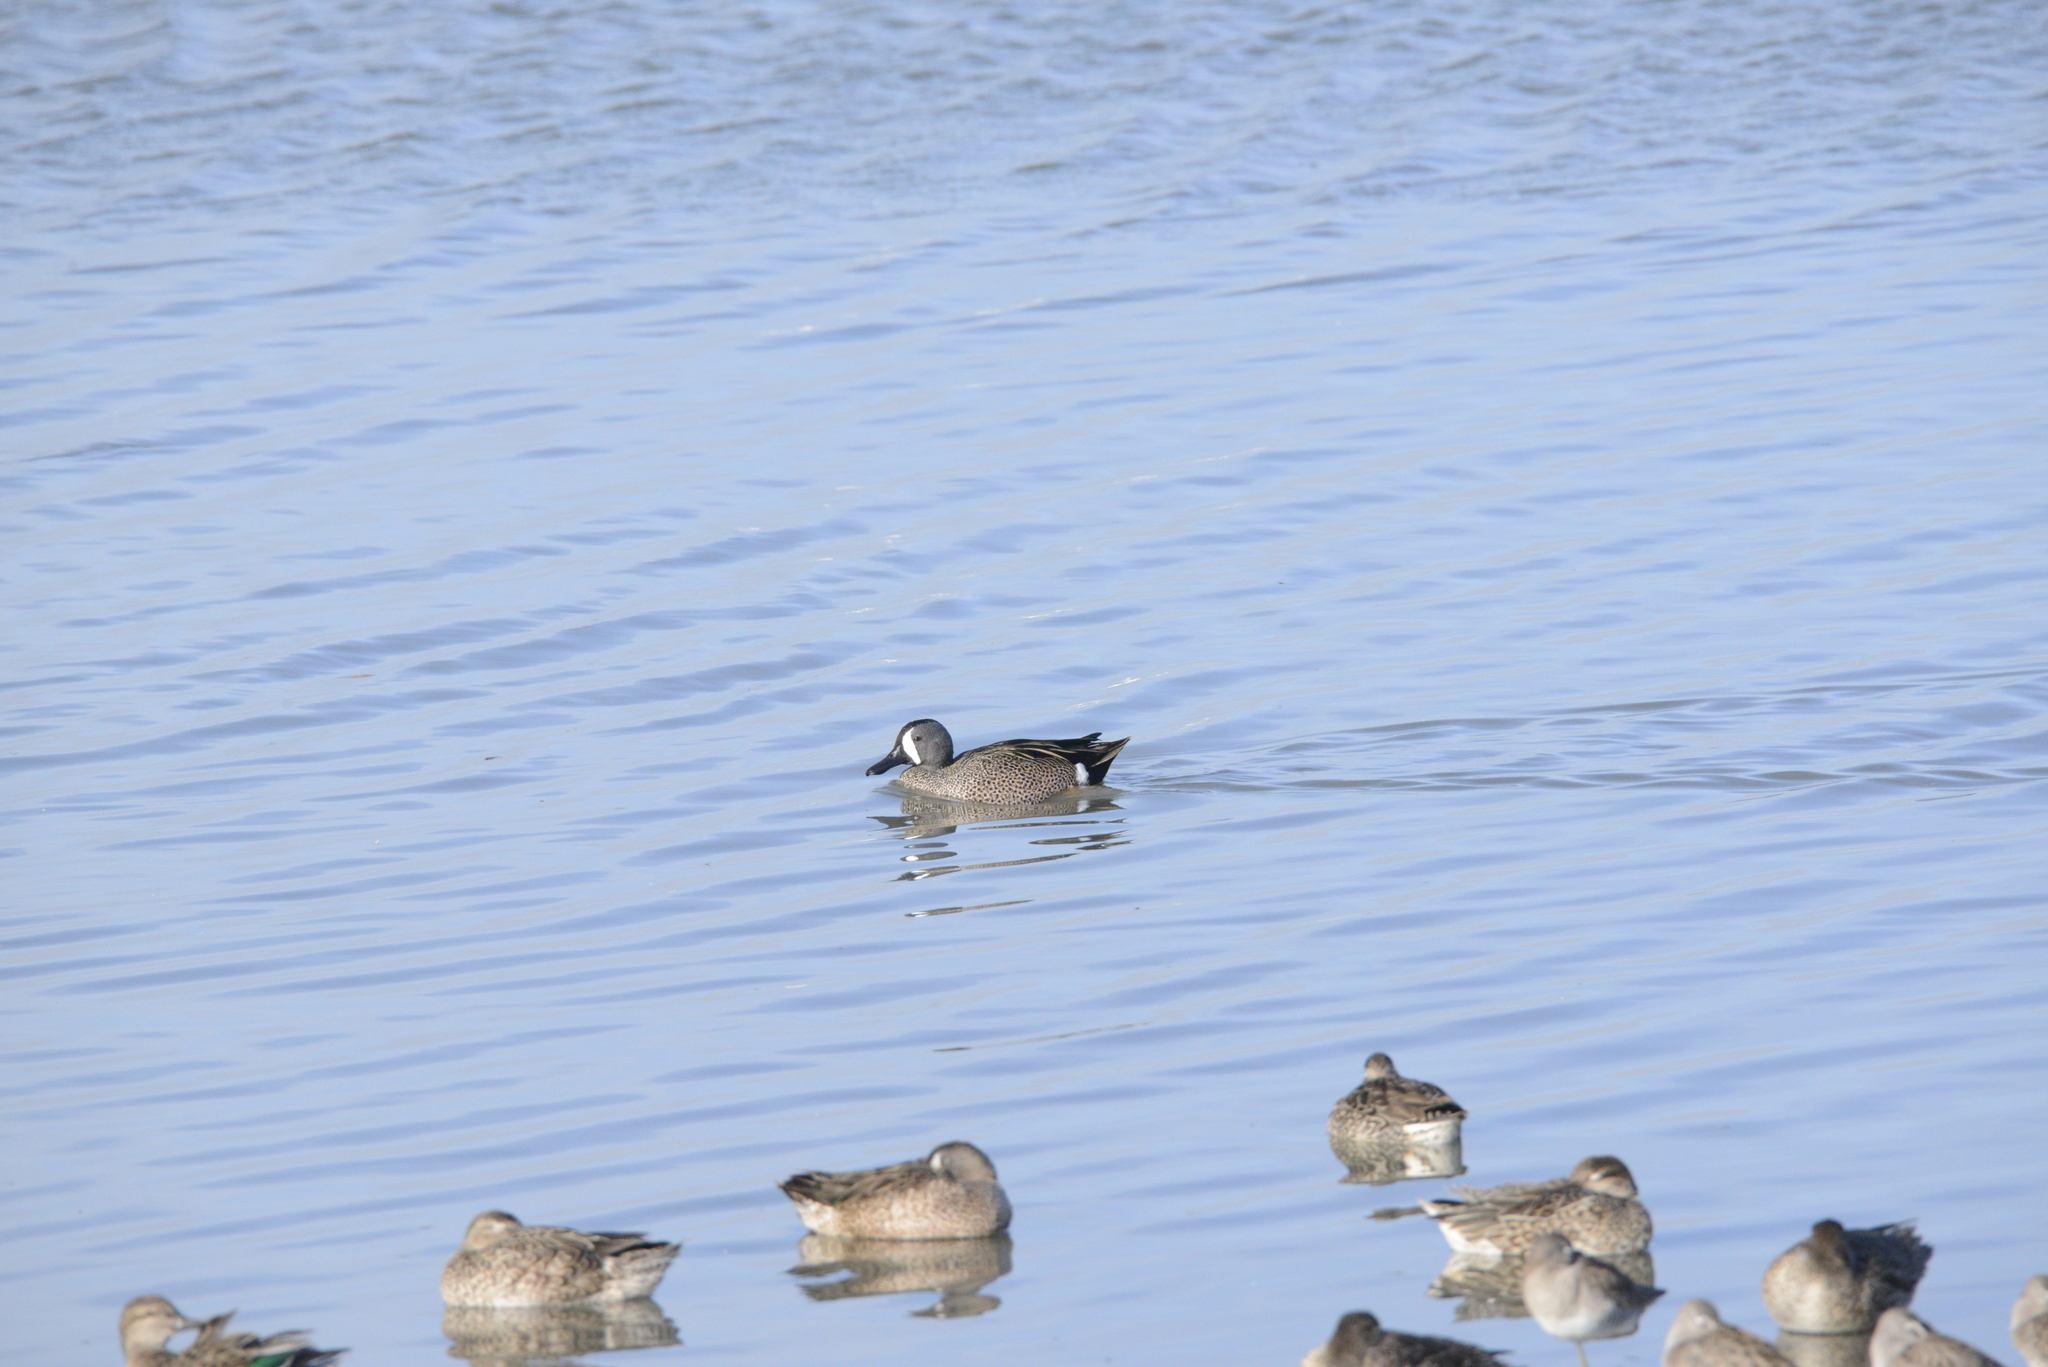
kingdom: Animalia
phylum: Chordata
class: Aves
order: Anseriformes
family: Anatidae
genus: Spatula
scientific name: Spatula discors
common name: Blue-winged teal
